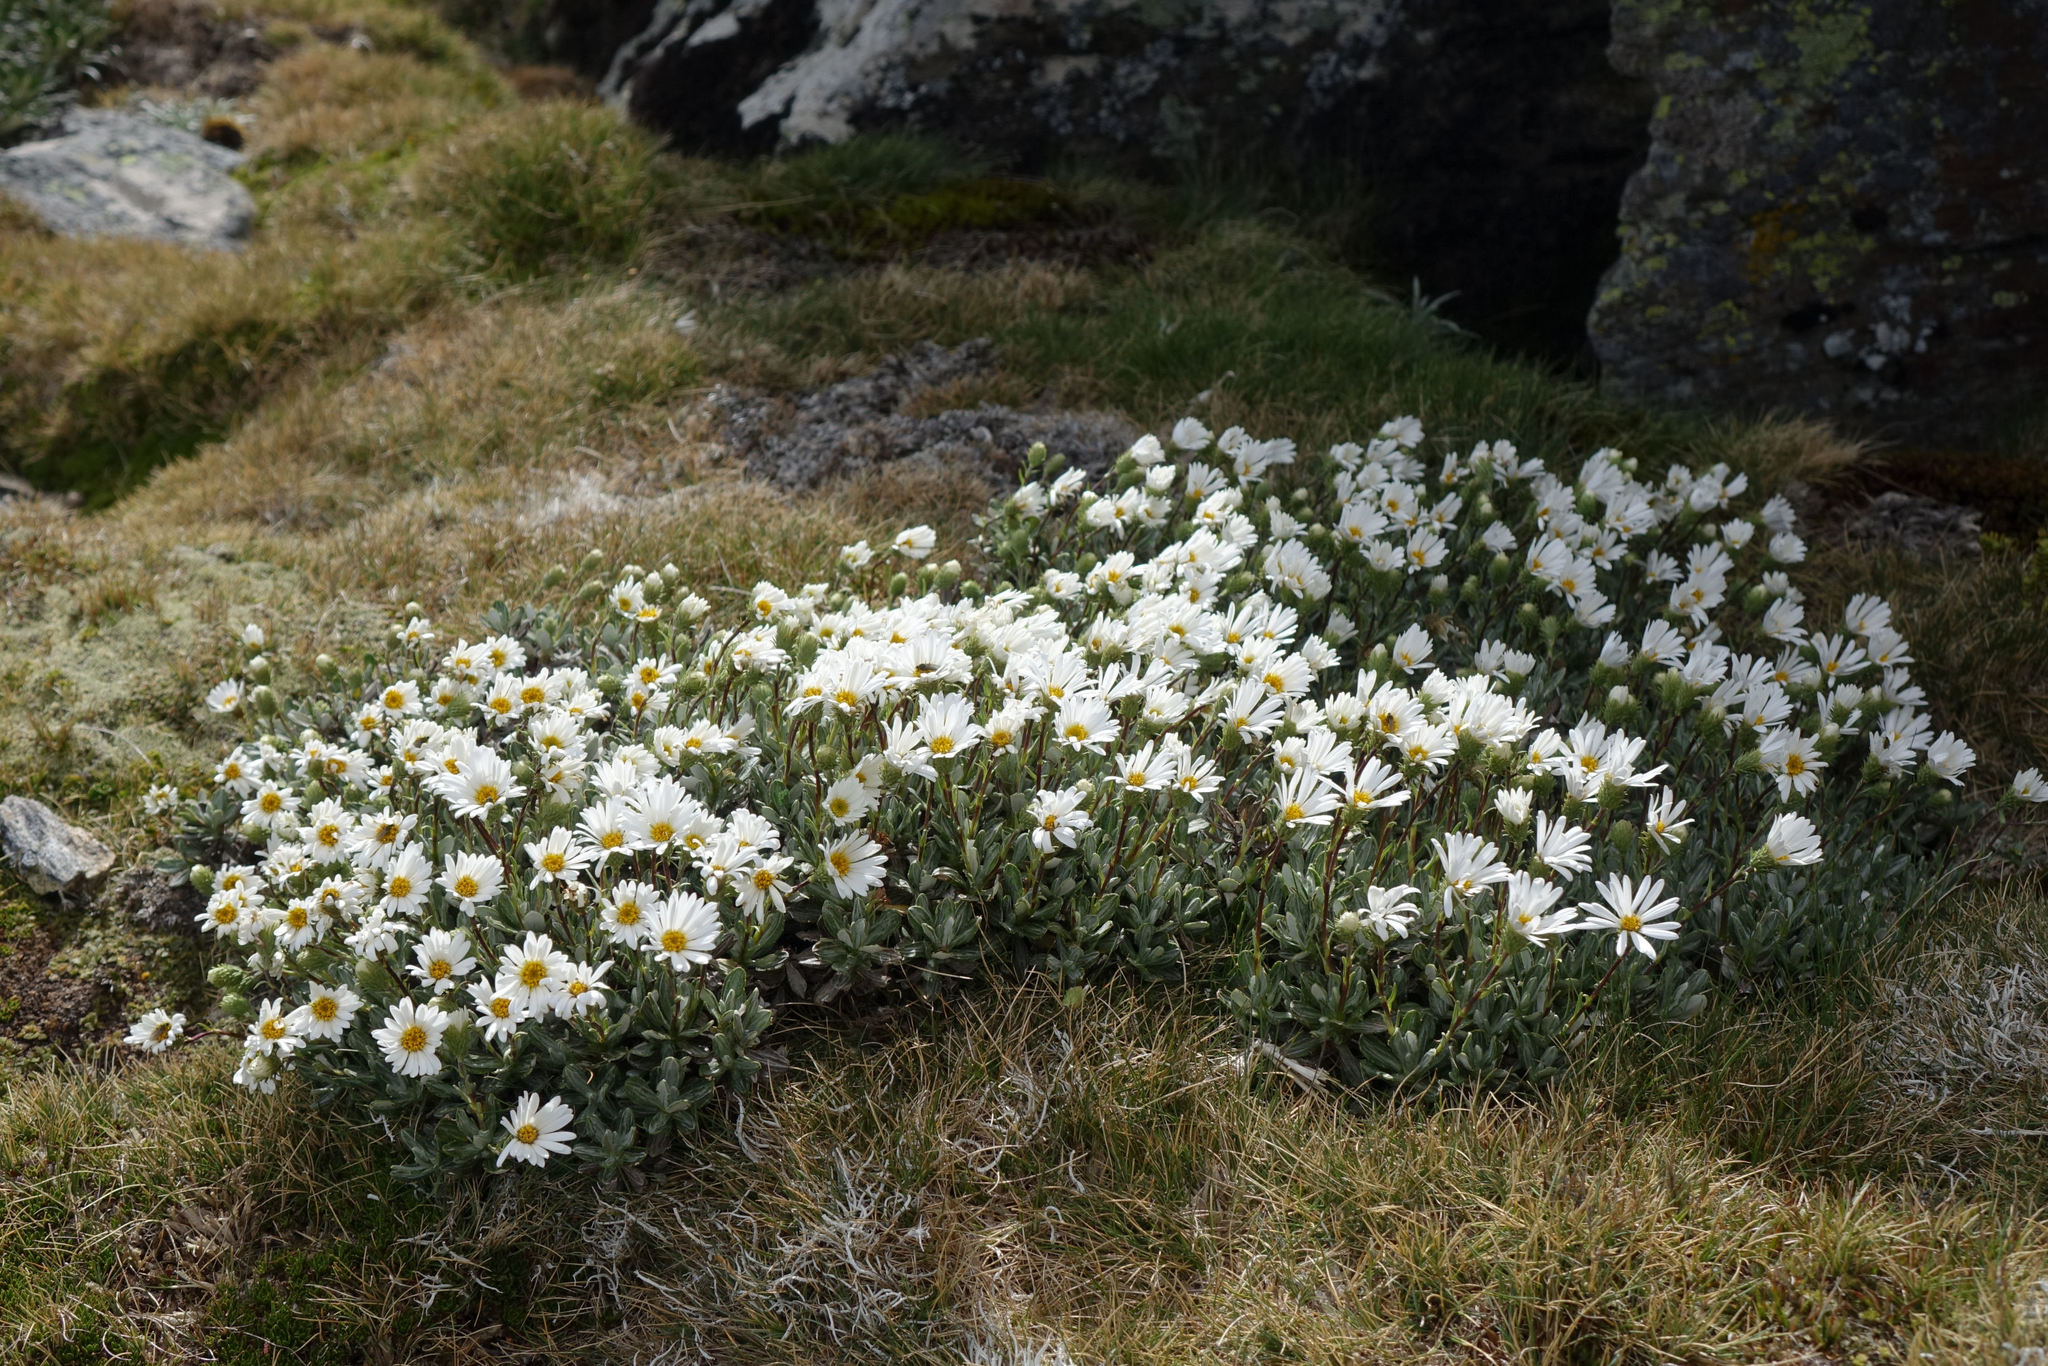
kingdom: Plantae
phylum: Tracheophyta
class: Magnoliopsida
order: Asterales
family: Asteraceae
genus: Celmisia
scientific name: Celmisia brevifolia
